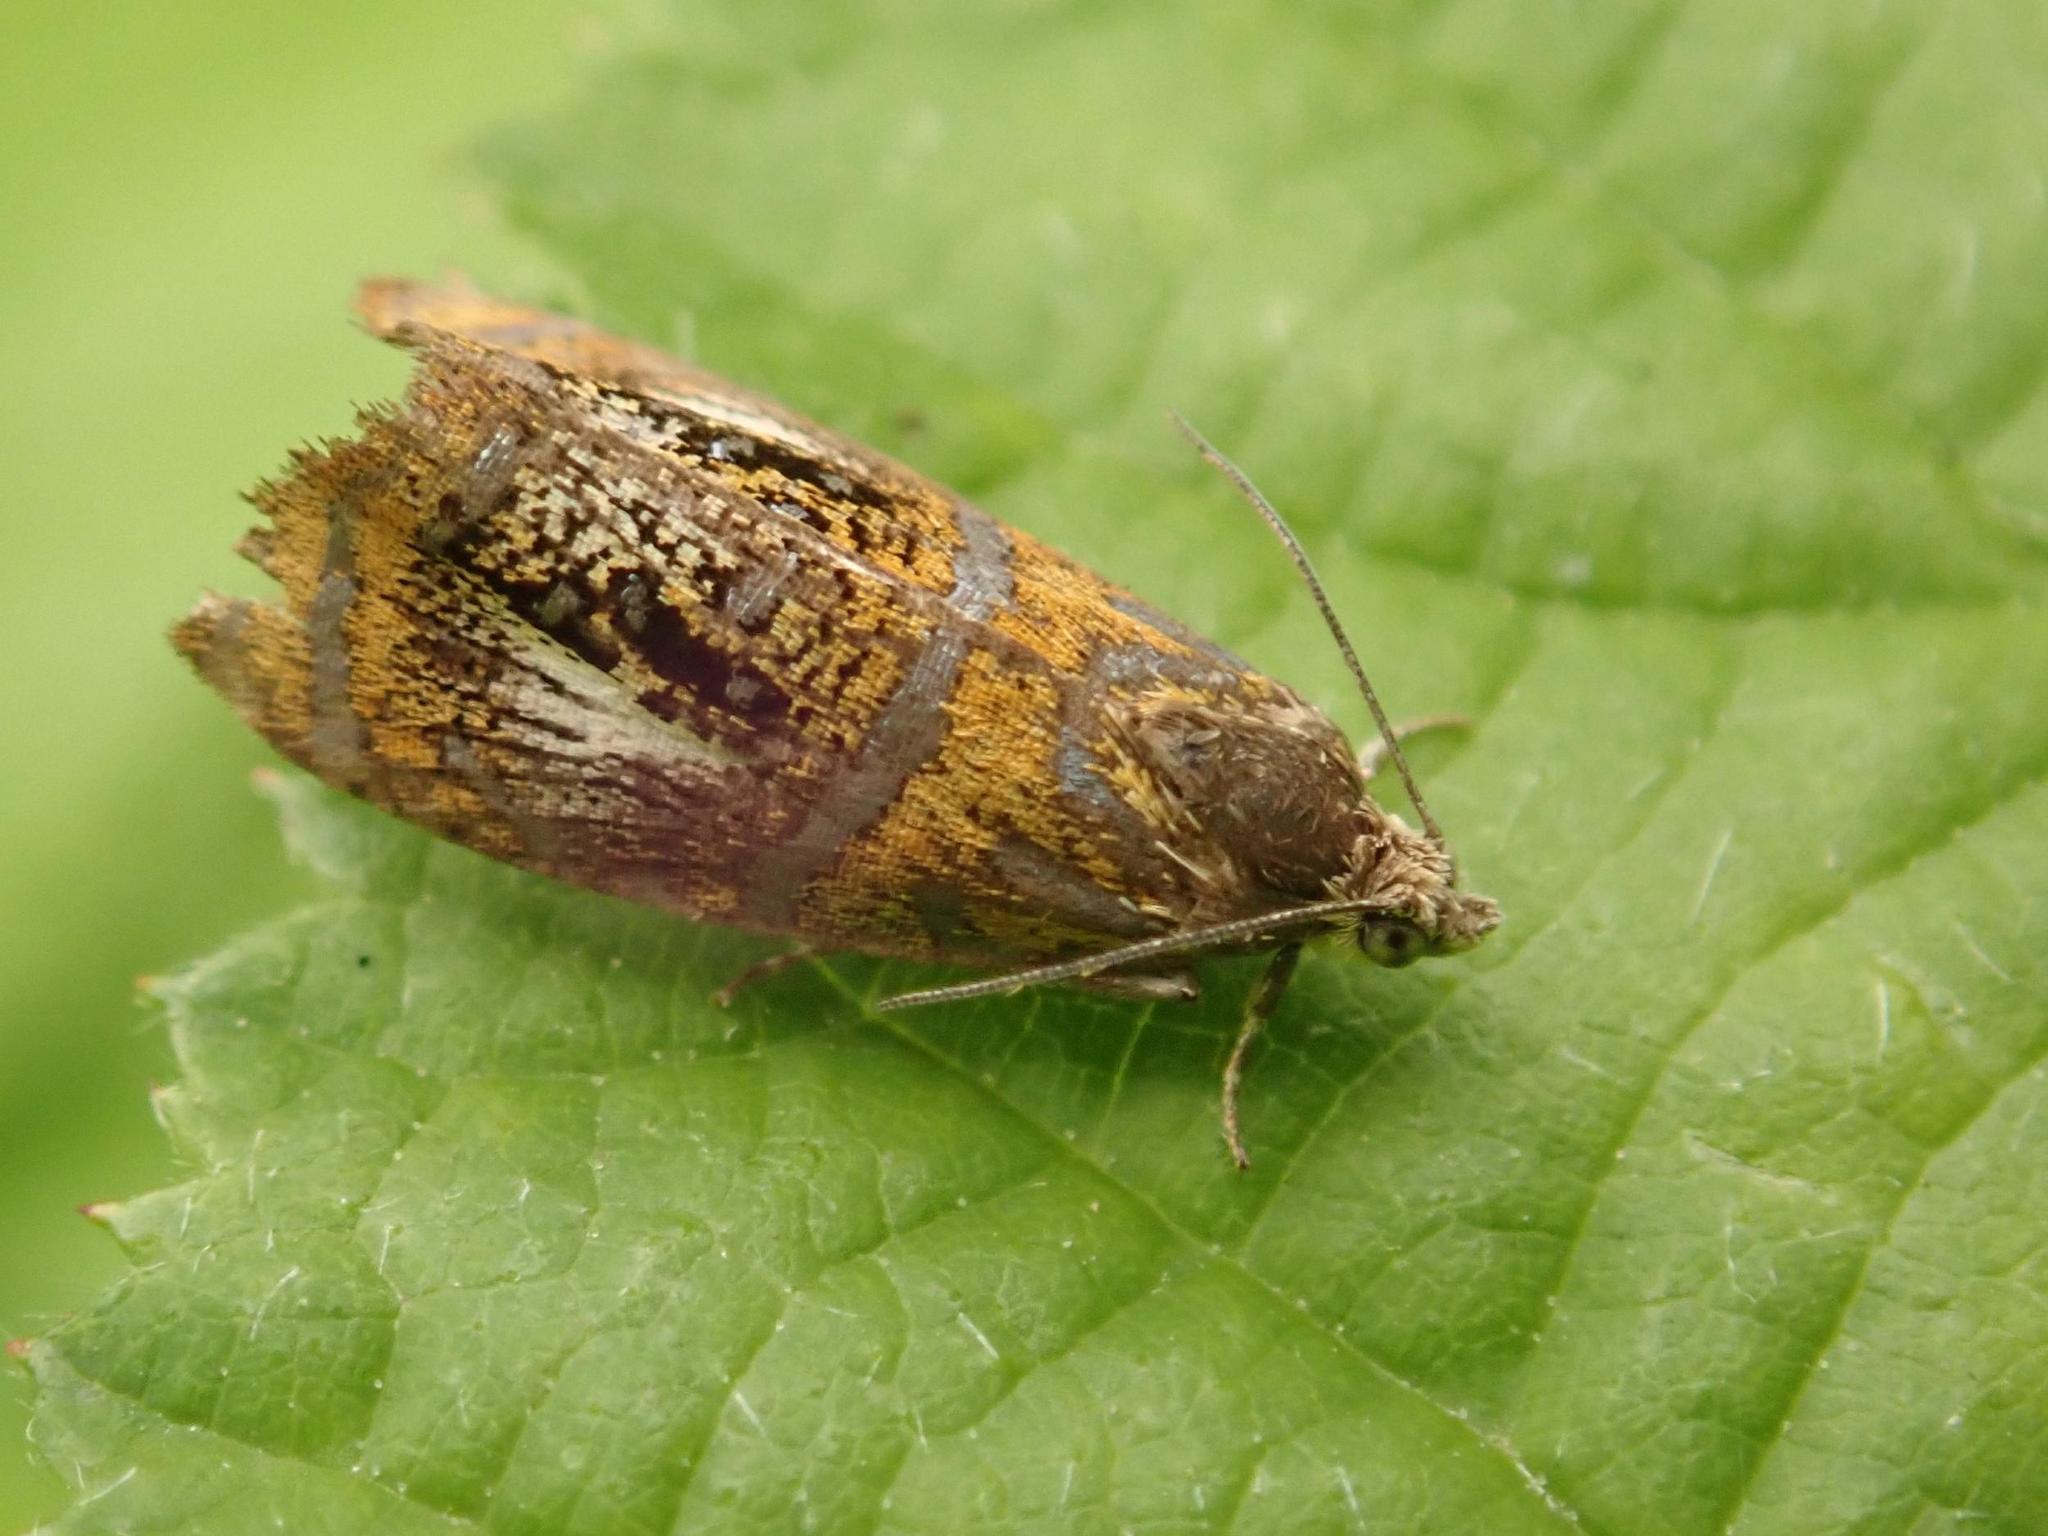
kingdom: Animalia
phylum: Arthropoda
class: Insecta
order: Lepidoptera
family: Tortricidae
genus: Olethreutes
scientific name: Olethreutes arcuella
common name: Arched marble
